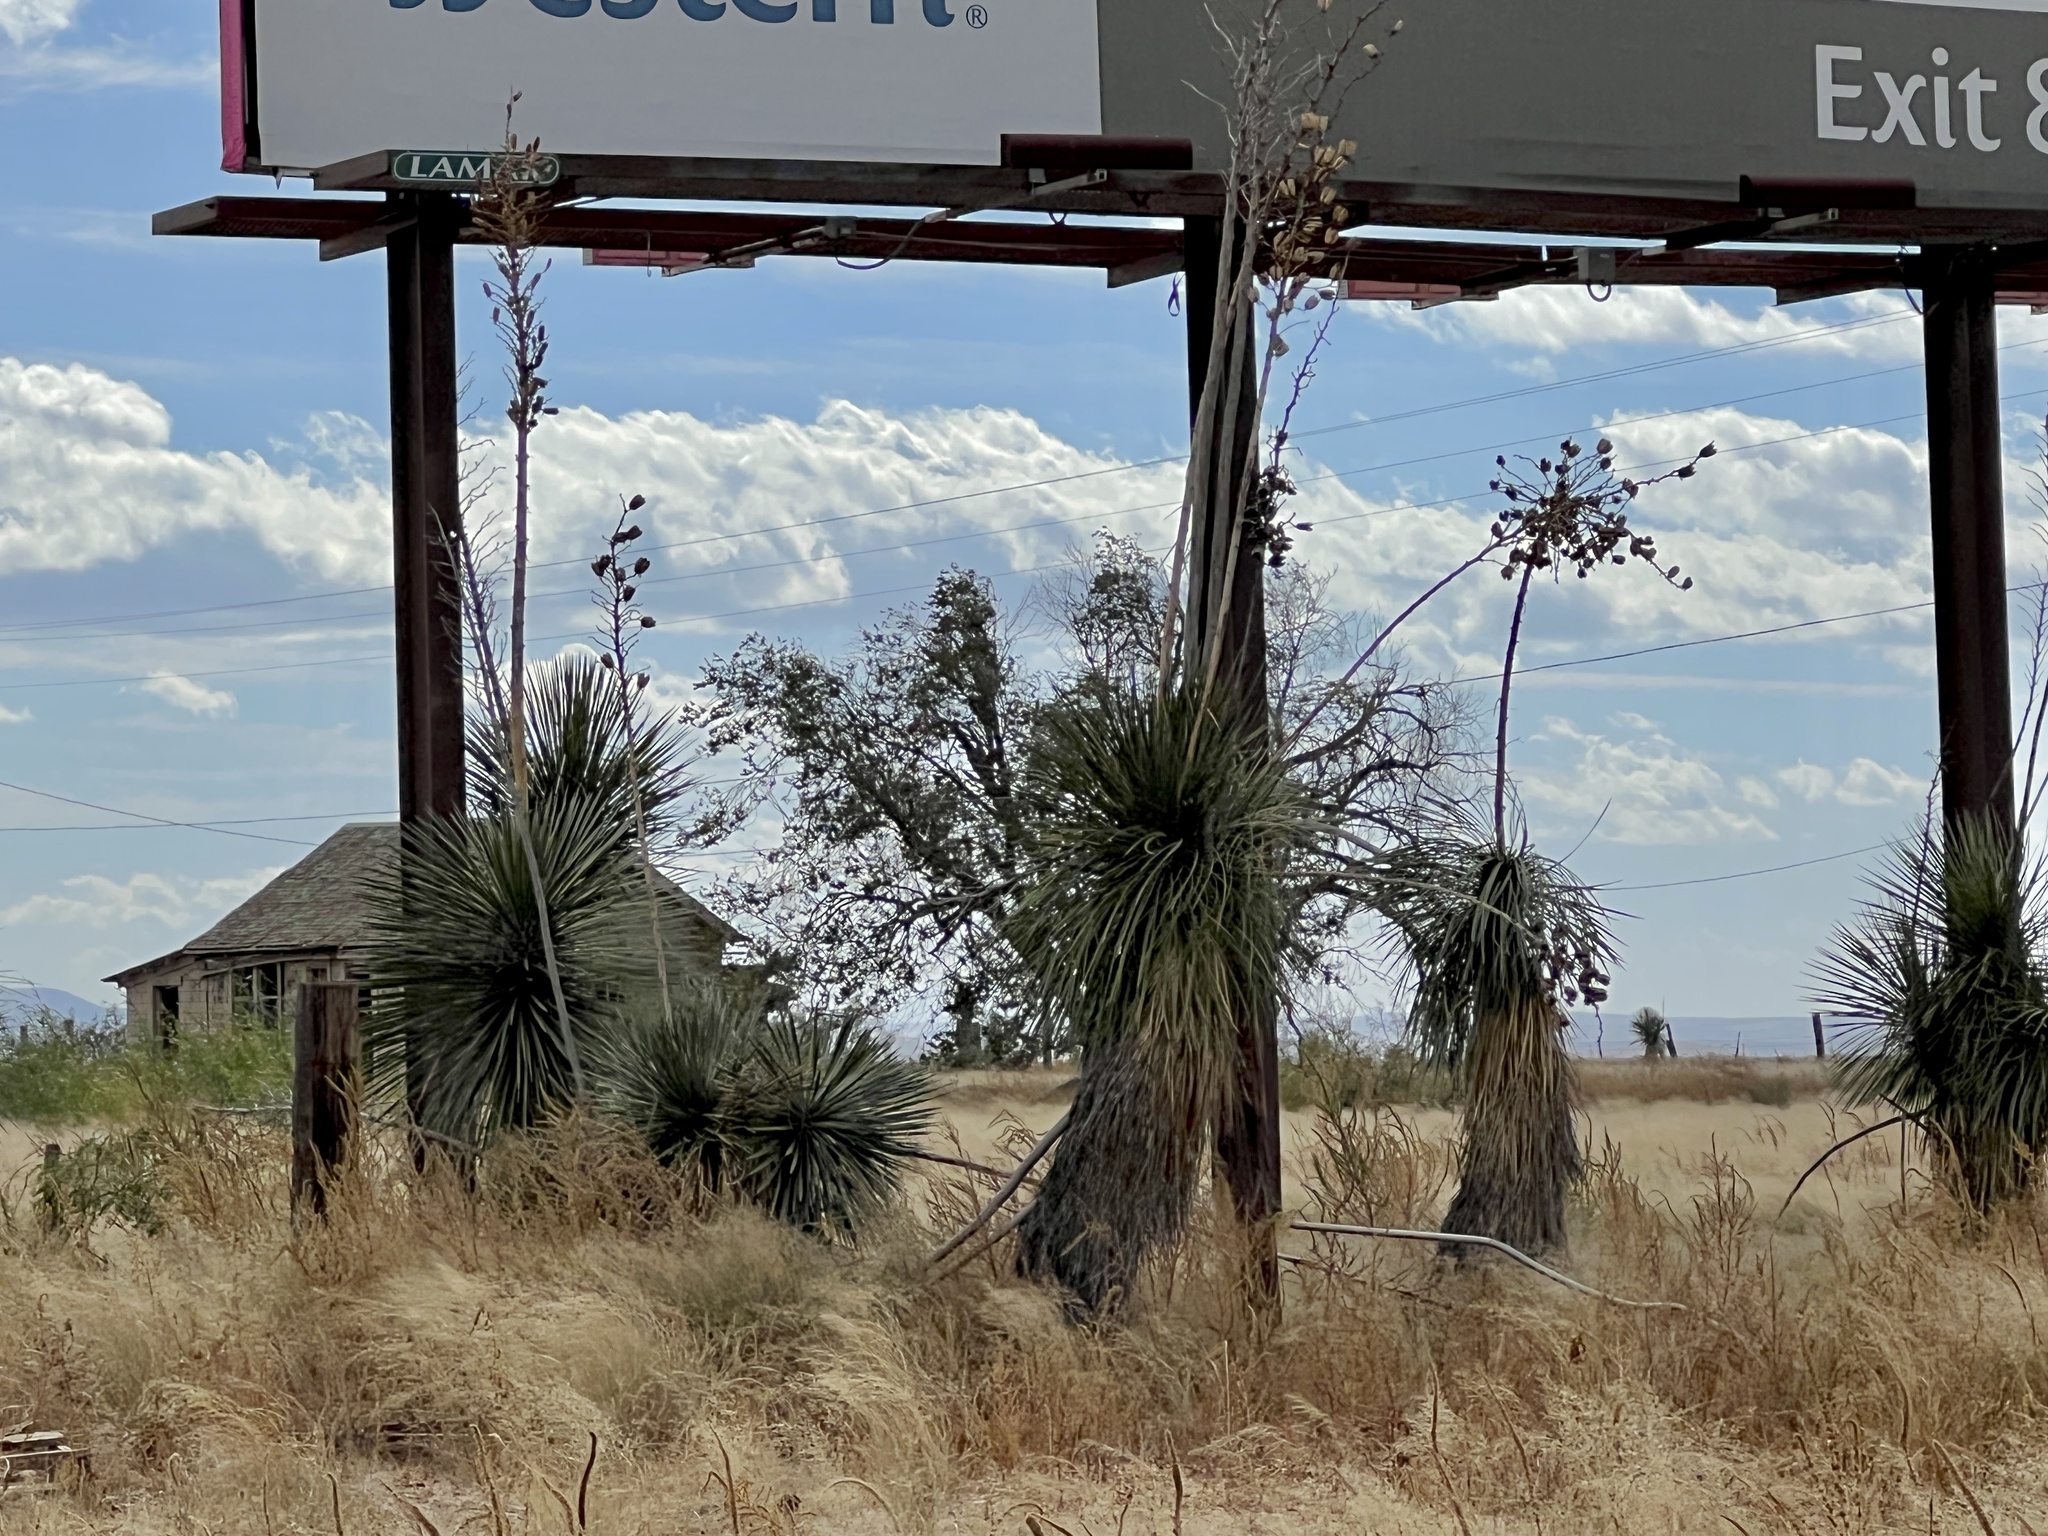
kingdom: Plantae
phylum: Tracheophyta
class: Liliopsida
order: Asparagales
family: Asparagaceae
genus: Yucca
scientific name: Yucca elata
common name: Palmella
